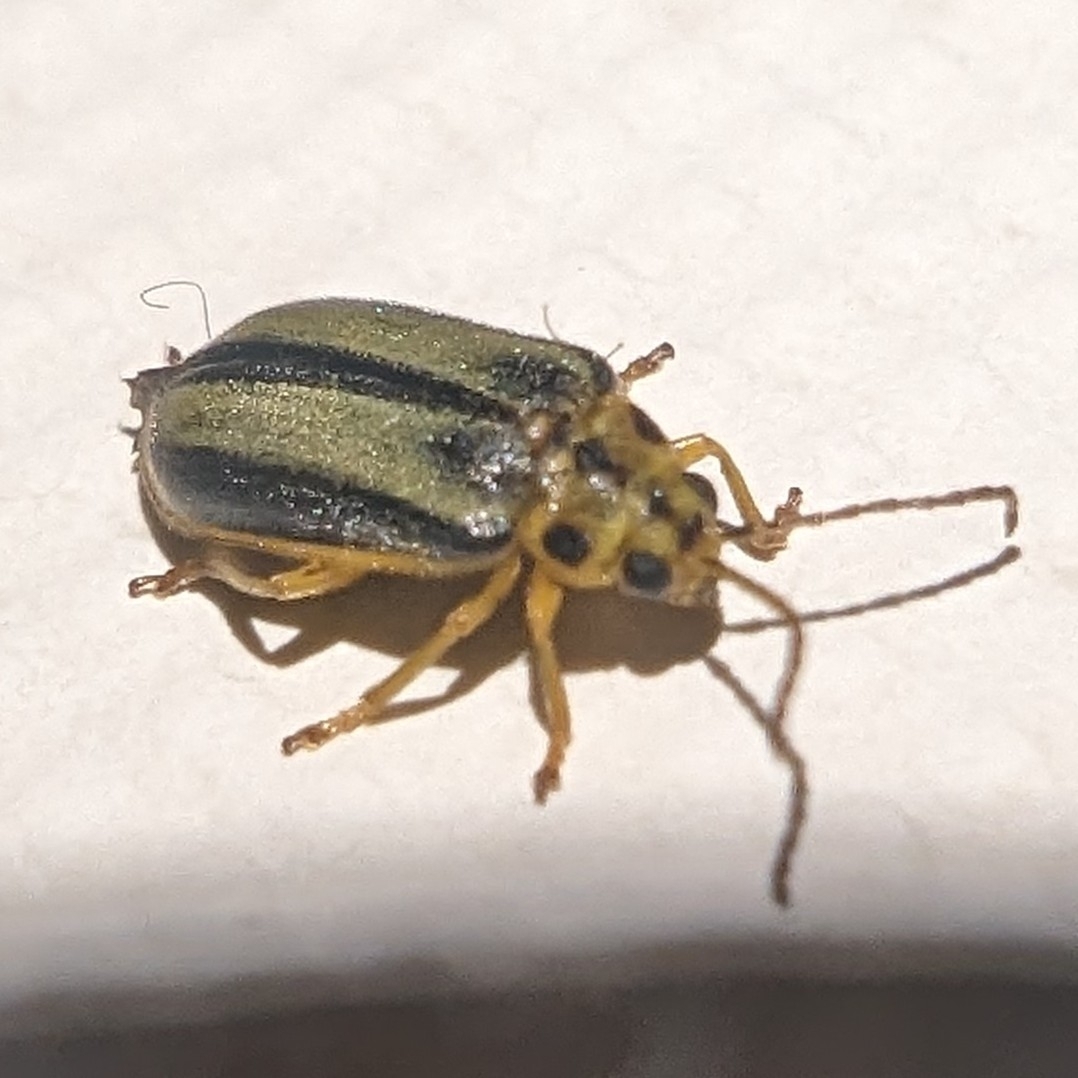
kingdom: Animalia
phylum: Arthropoda
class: Insecta
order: Coleoptera
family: Chrysomelidae
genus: Xanthogaleruca
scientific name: Xanthogaleruca luteola
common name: Elm leaf beetle
